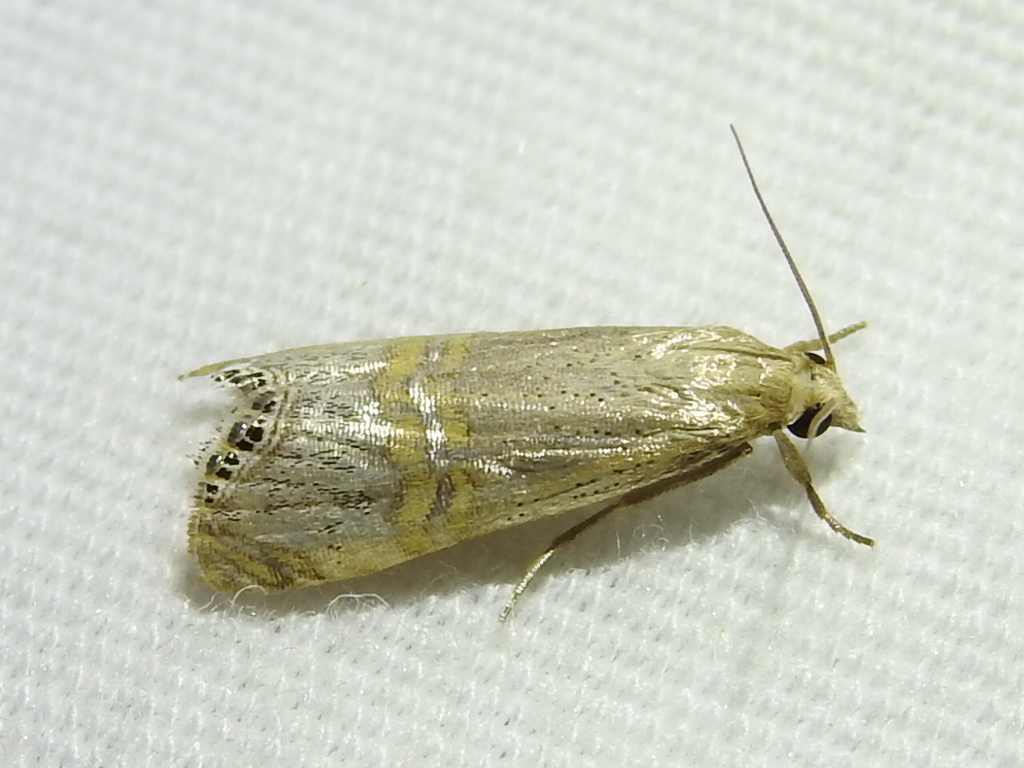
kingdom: Animalia
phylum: Arthropoda
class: Insecta
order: Lepidoptera
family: Crambidae
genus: Euchromius
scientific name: Euchromius ocellea
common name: Necklace veneer moth
